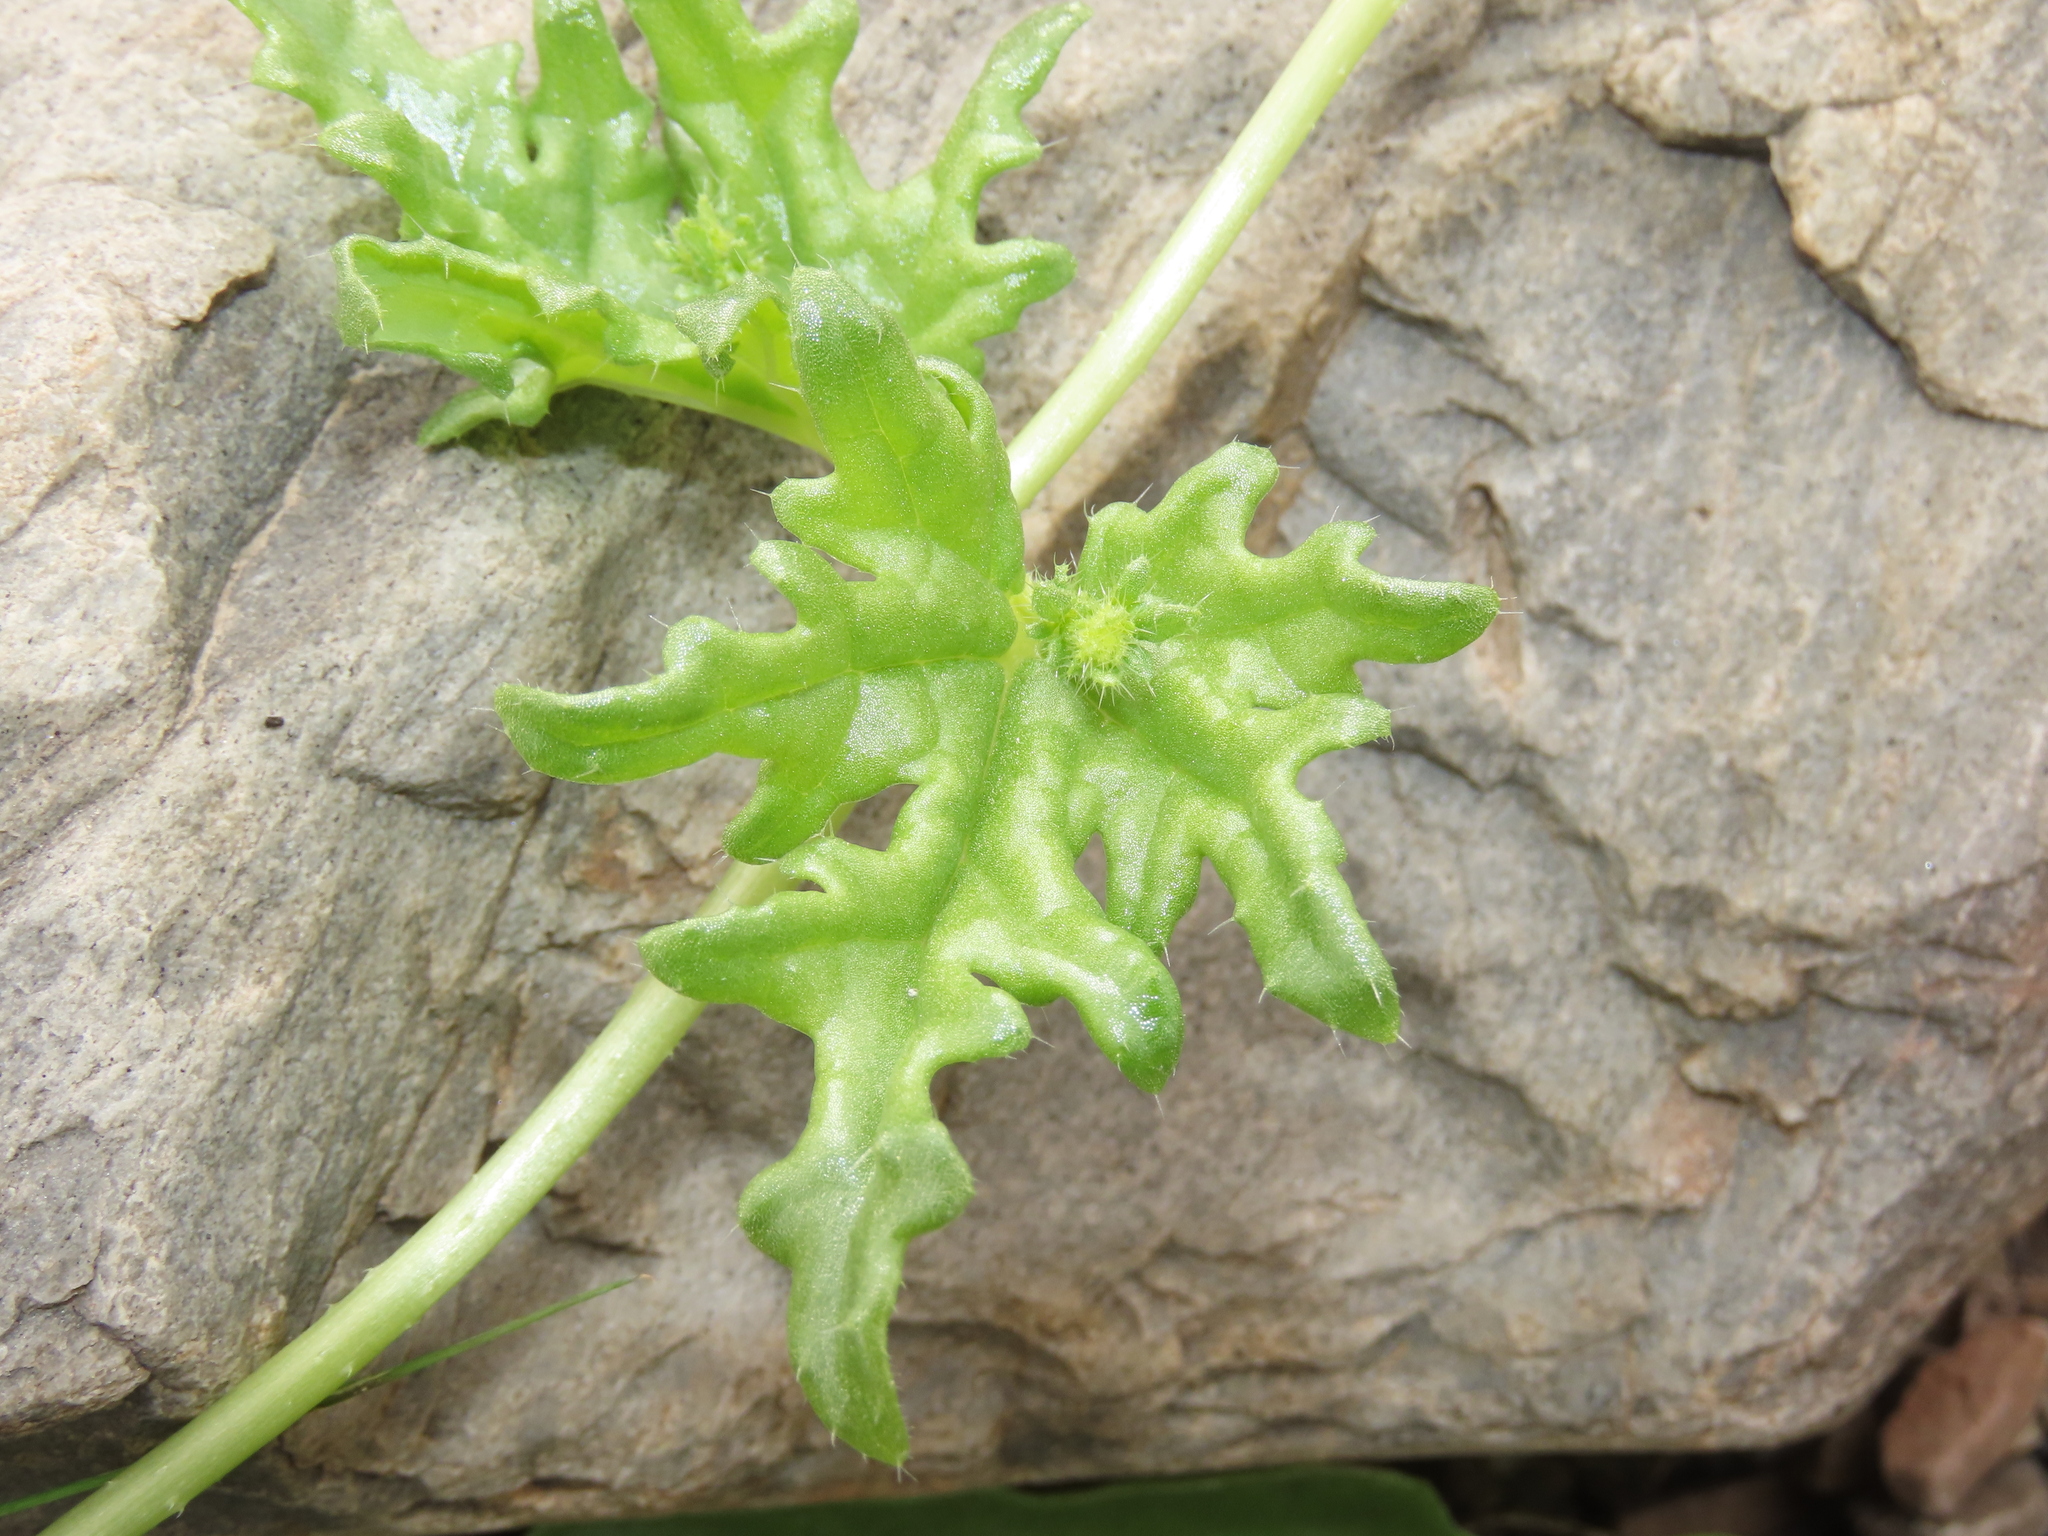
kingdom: Plantae
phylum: Tracheophyta
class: Magnoliopsida
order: Cornales
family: Loasaceae
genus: Loasa
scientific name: Loasa elongata
